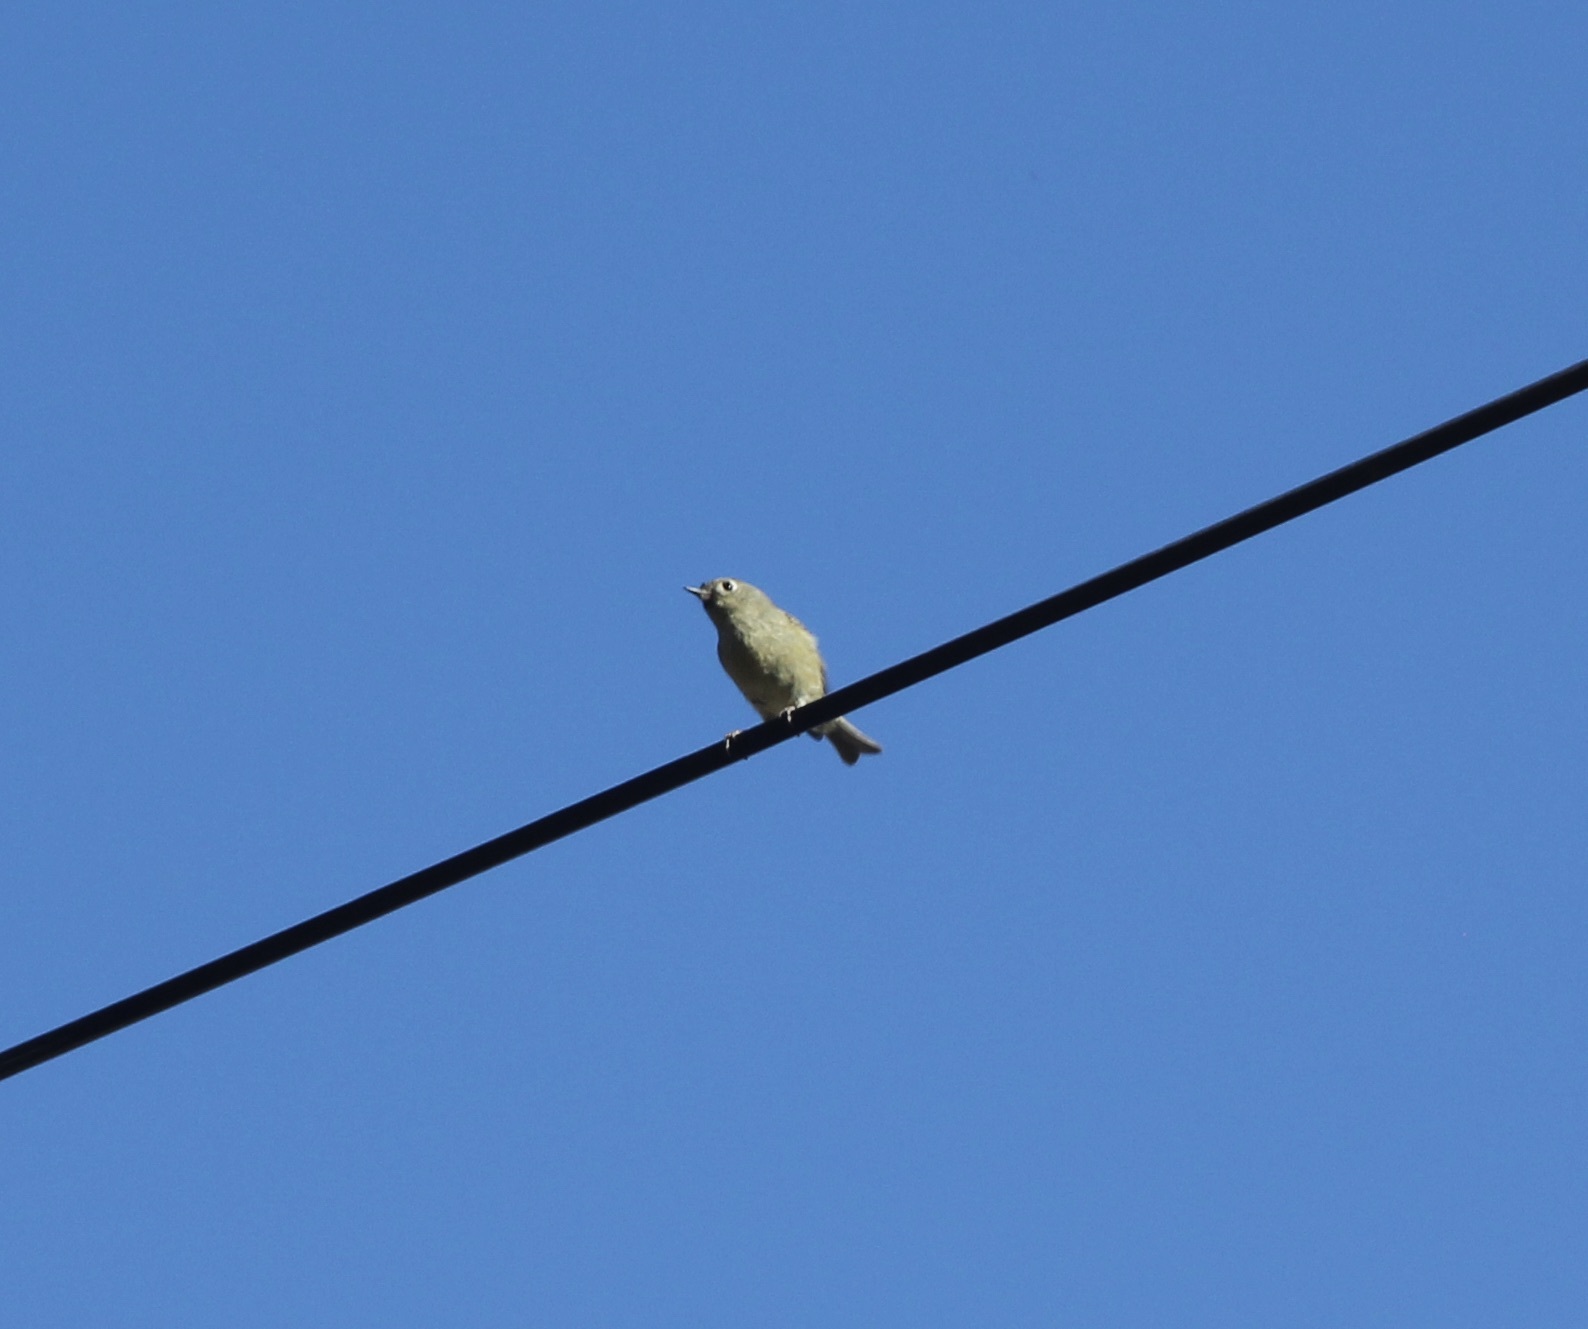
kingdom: Animalia
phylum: Chordata
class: Aves
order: Passeriformes
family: Regulidae
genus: Regulus
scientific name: Regulus calendula
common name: Ruby-crowned kinglet
